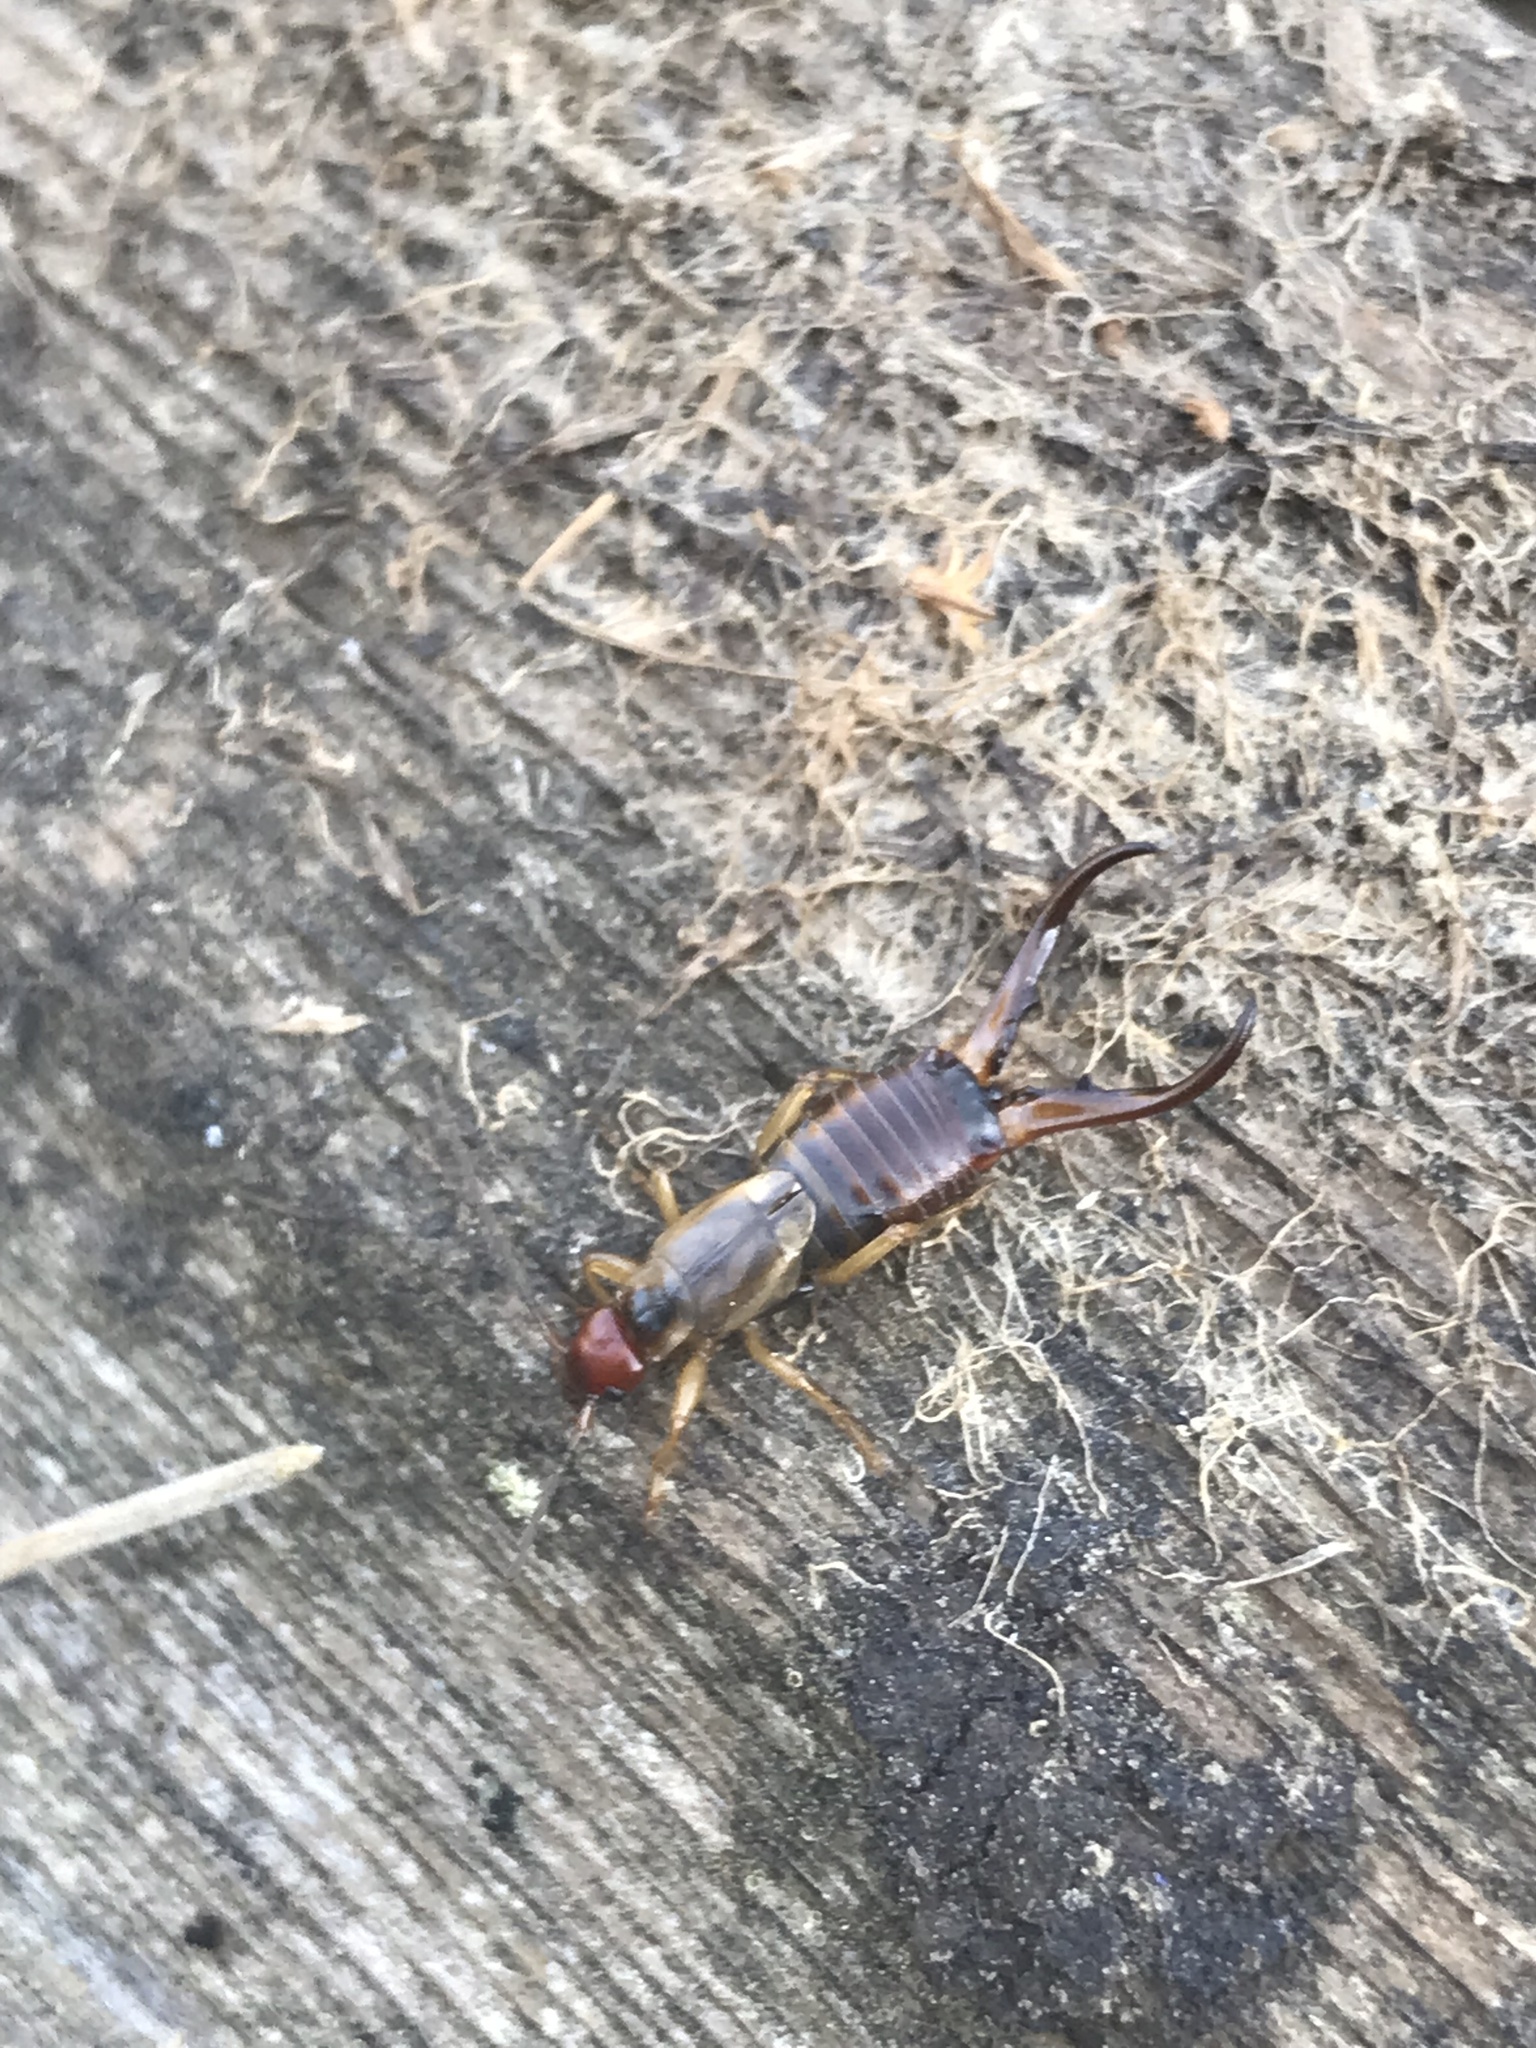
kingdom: Animalia
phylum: Arthropoda
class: Insecta
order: Dermaptera
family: Forficulidae
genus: Forficula
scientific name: Forficula
